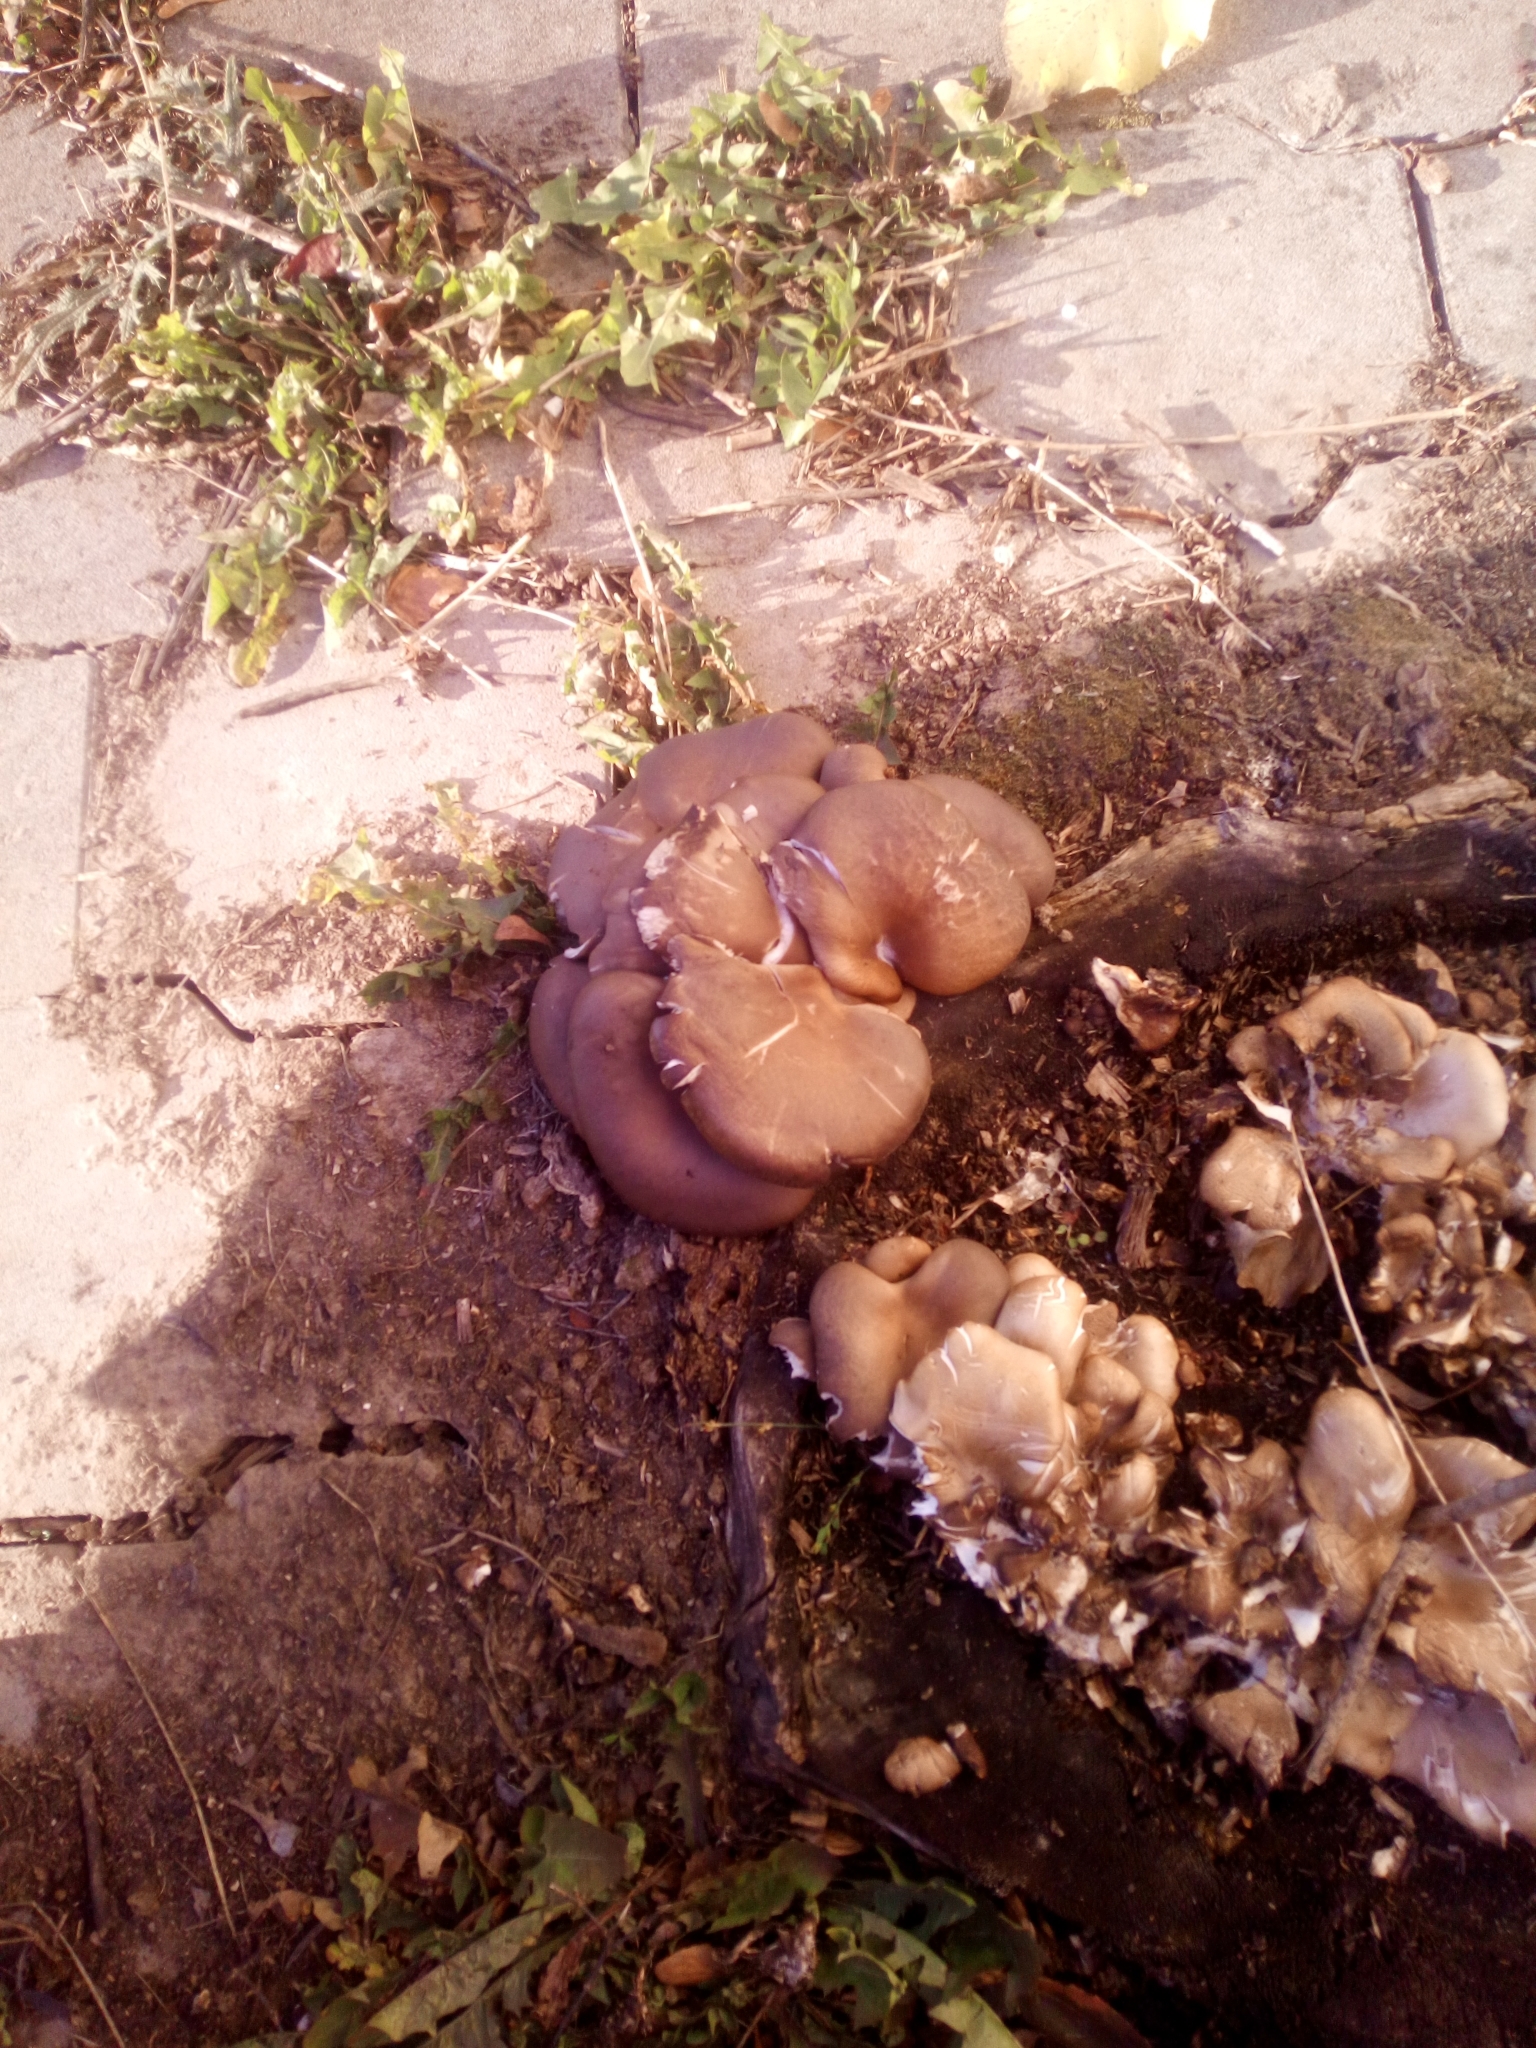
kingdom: Fungi
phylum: Basidiomycota
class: Agaricomycetes
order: Agaricales
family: Pleurotaceae
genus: Pleurotus
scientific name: Pleurotus ostreatus
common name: Oyster mushroom
